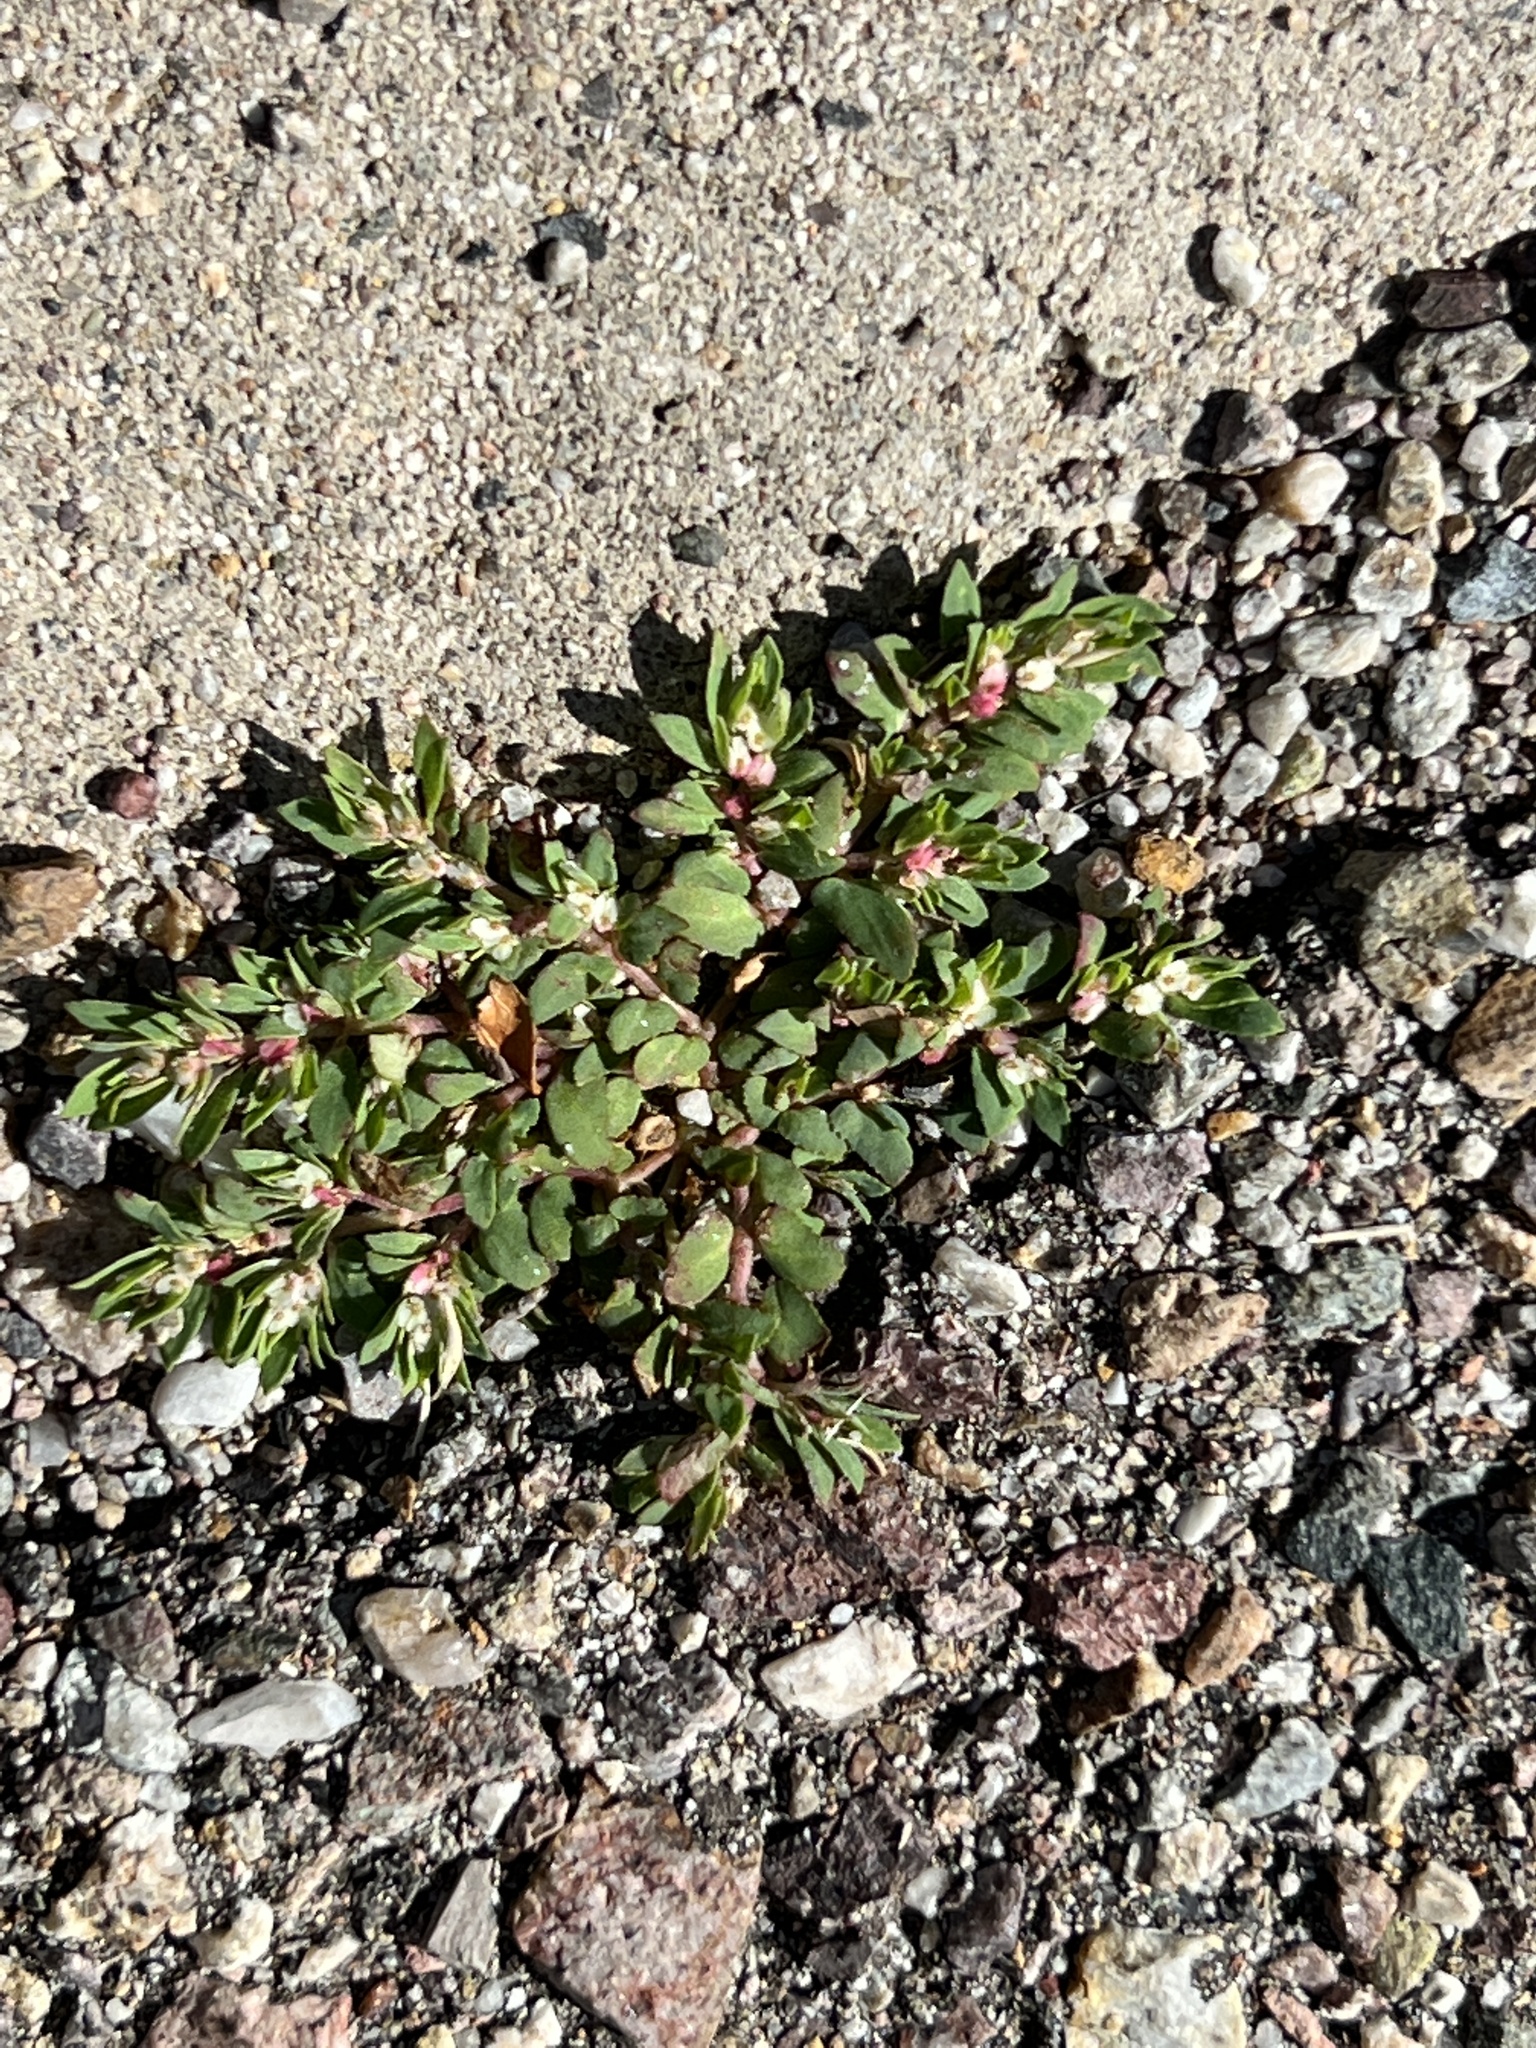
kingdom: Plantae
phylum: Tracheophyta
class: Magnoliopsida
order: Malpighiales
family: Euphorbiaceae
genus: Euphorbia
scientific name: Euphorbia indivisa
